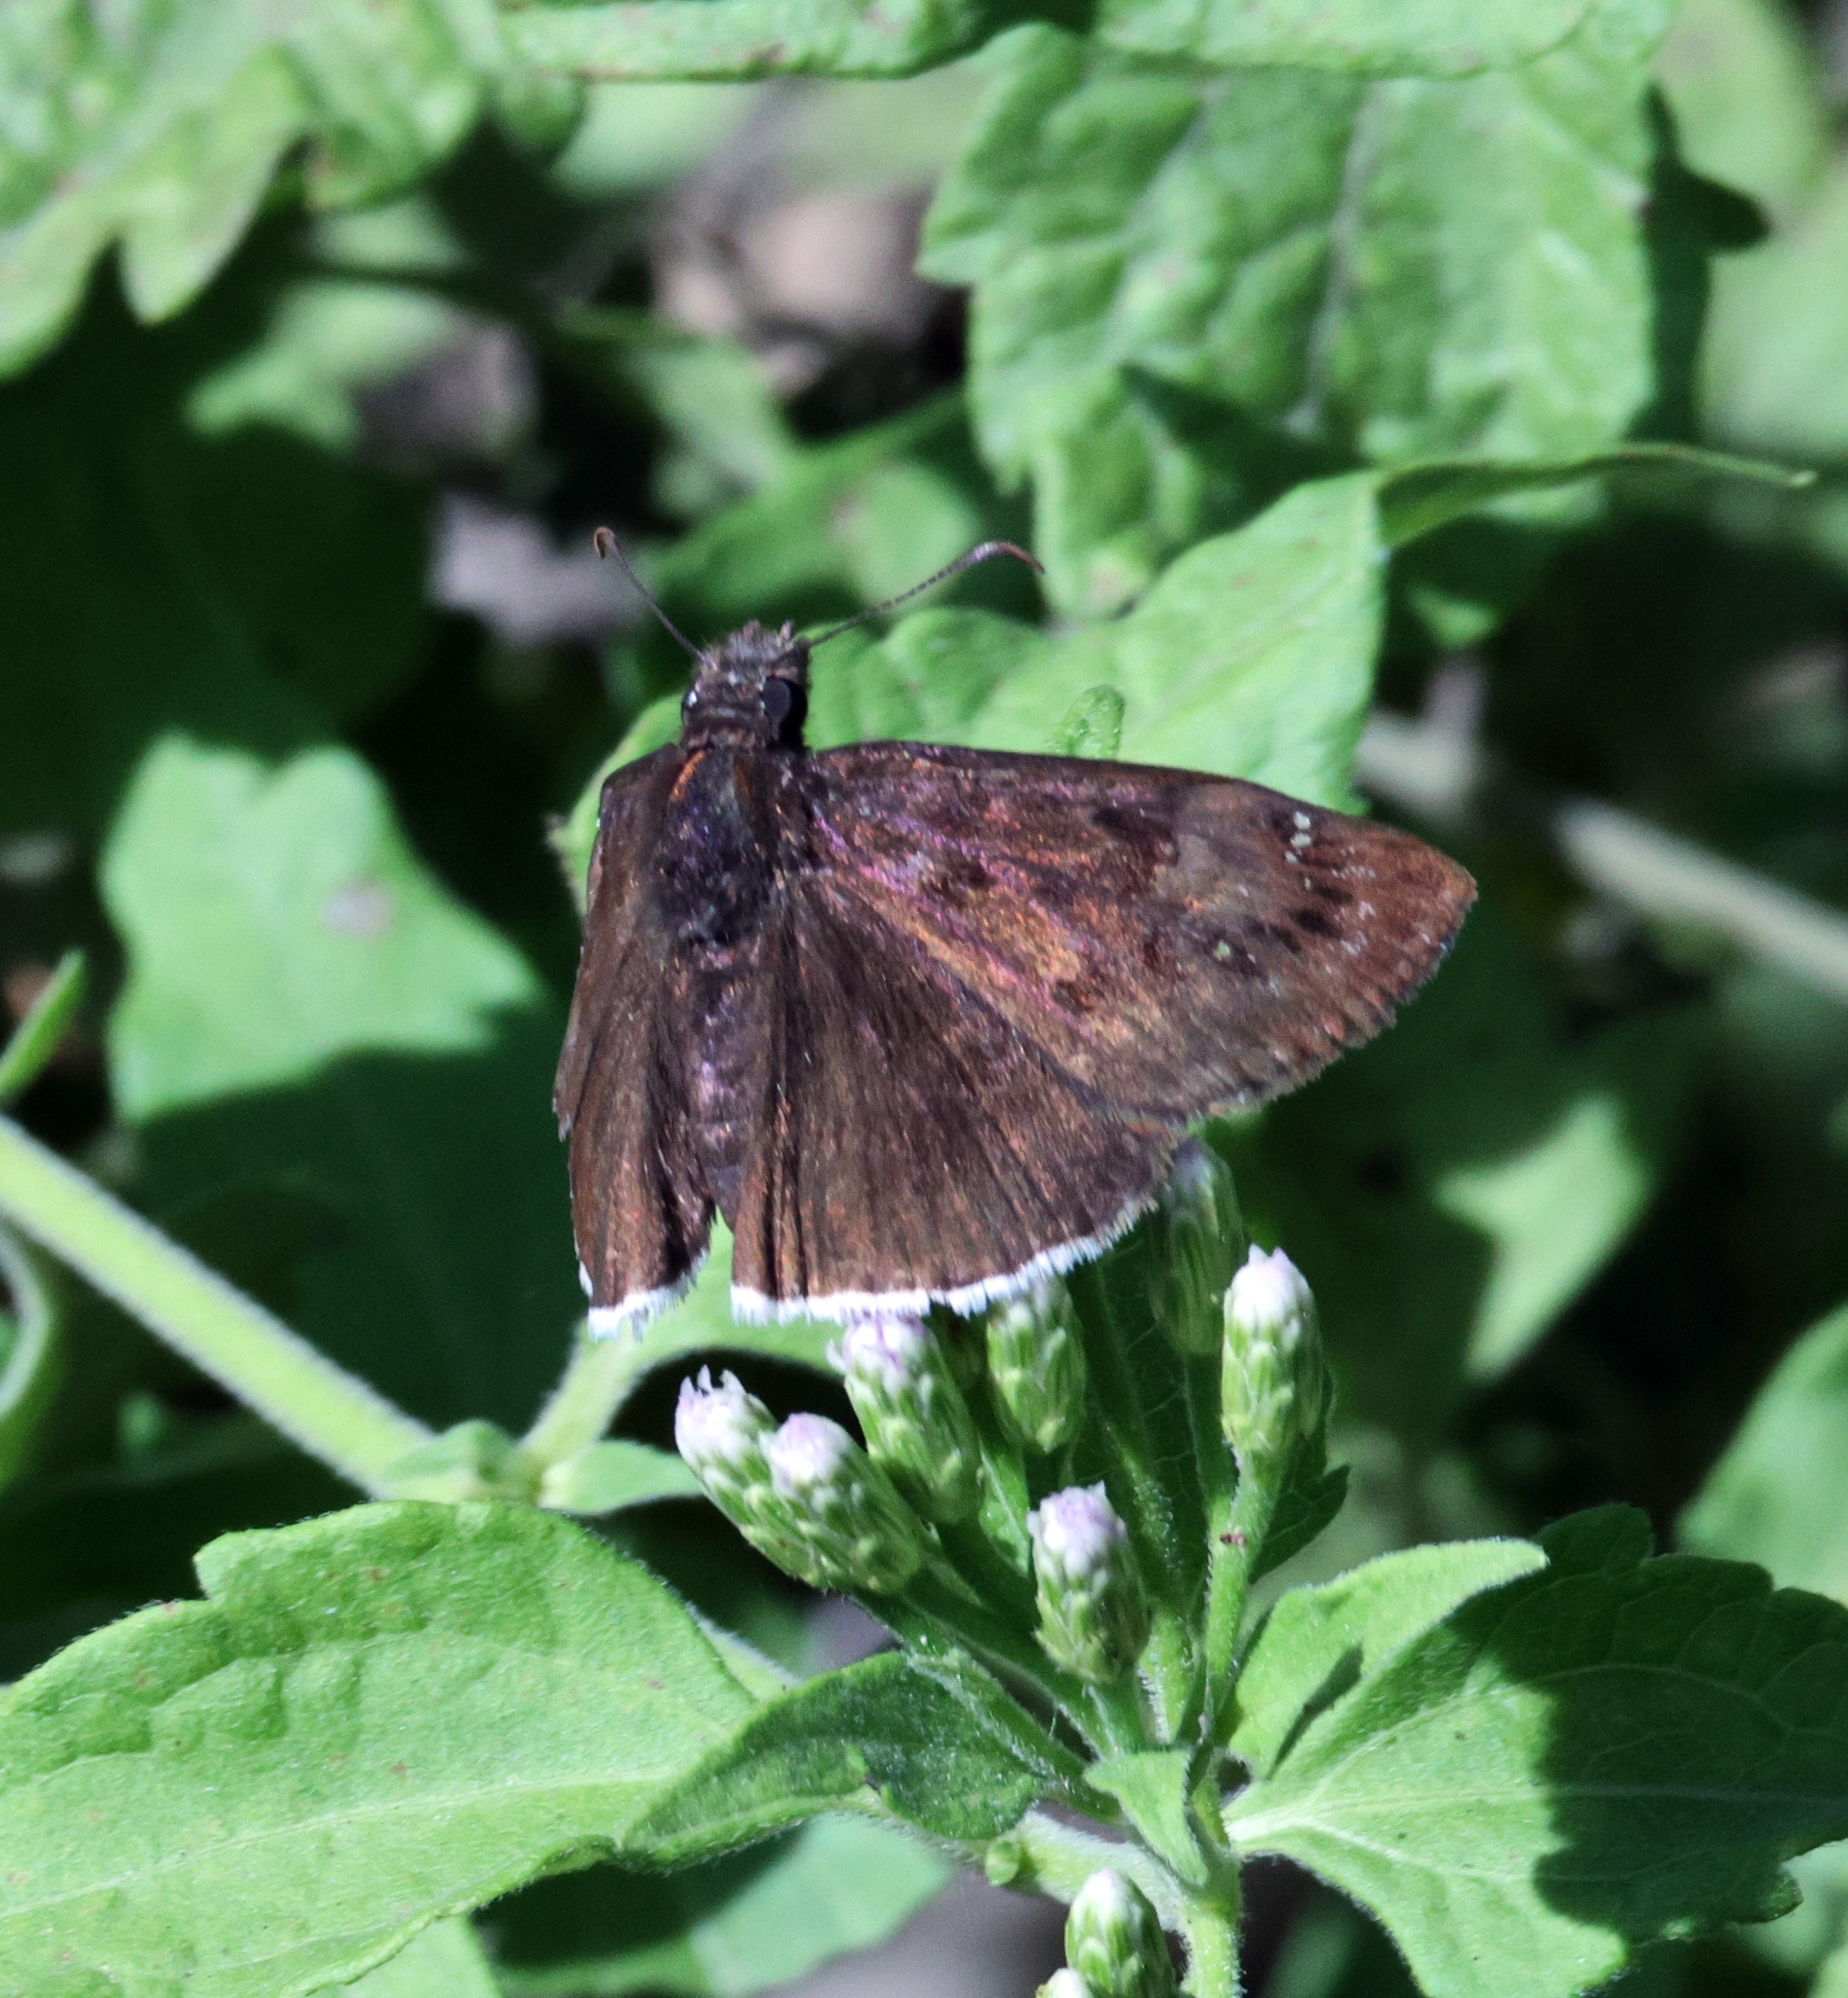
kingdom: Animalia
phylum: Arthropoda
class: Insecta
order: Lepidoptera
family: Hesperiidae
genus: Erynnis
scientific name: Erynnis tristis
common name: Mournful duskywing
